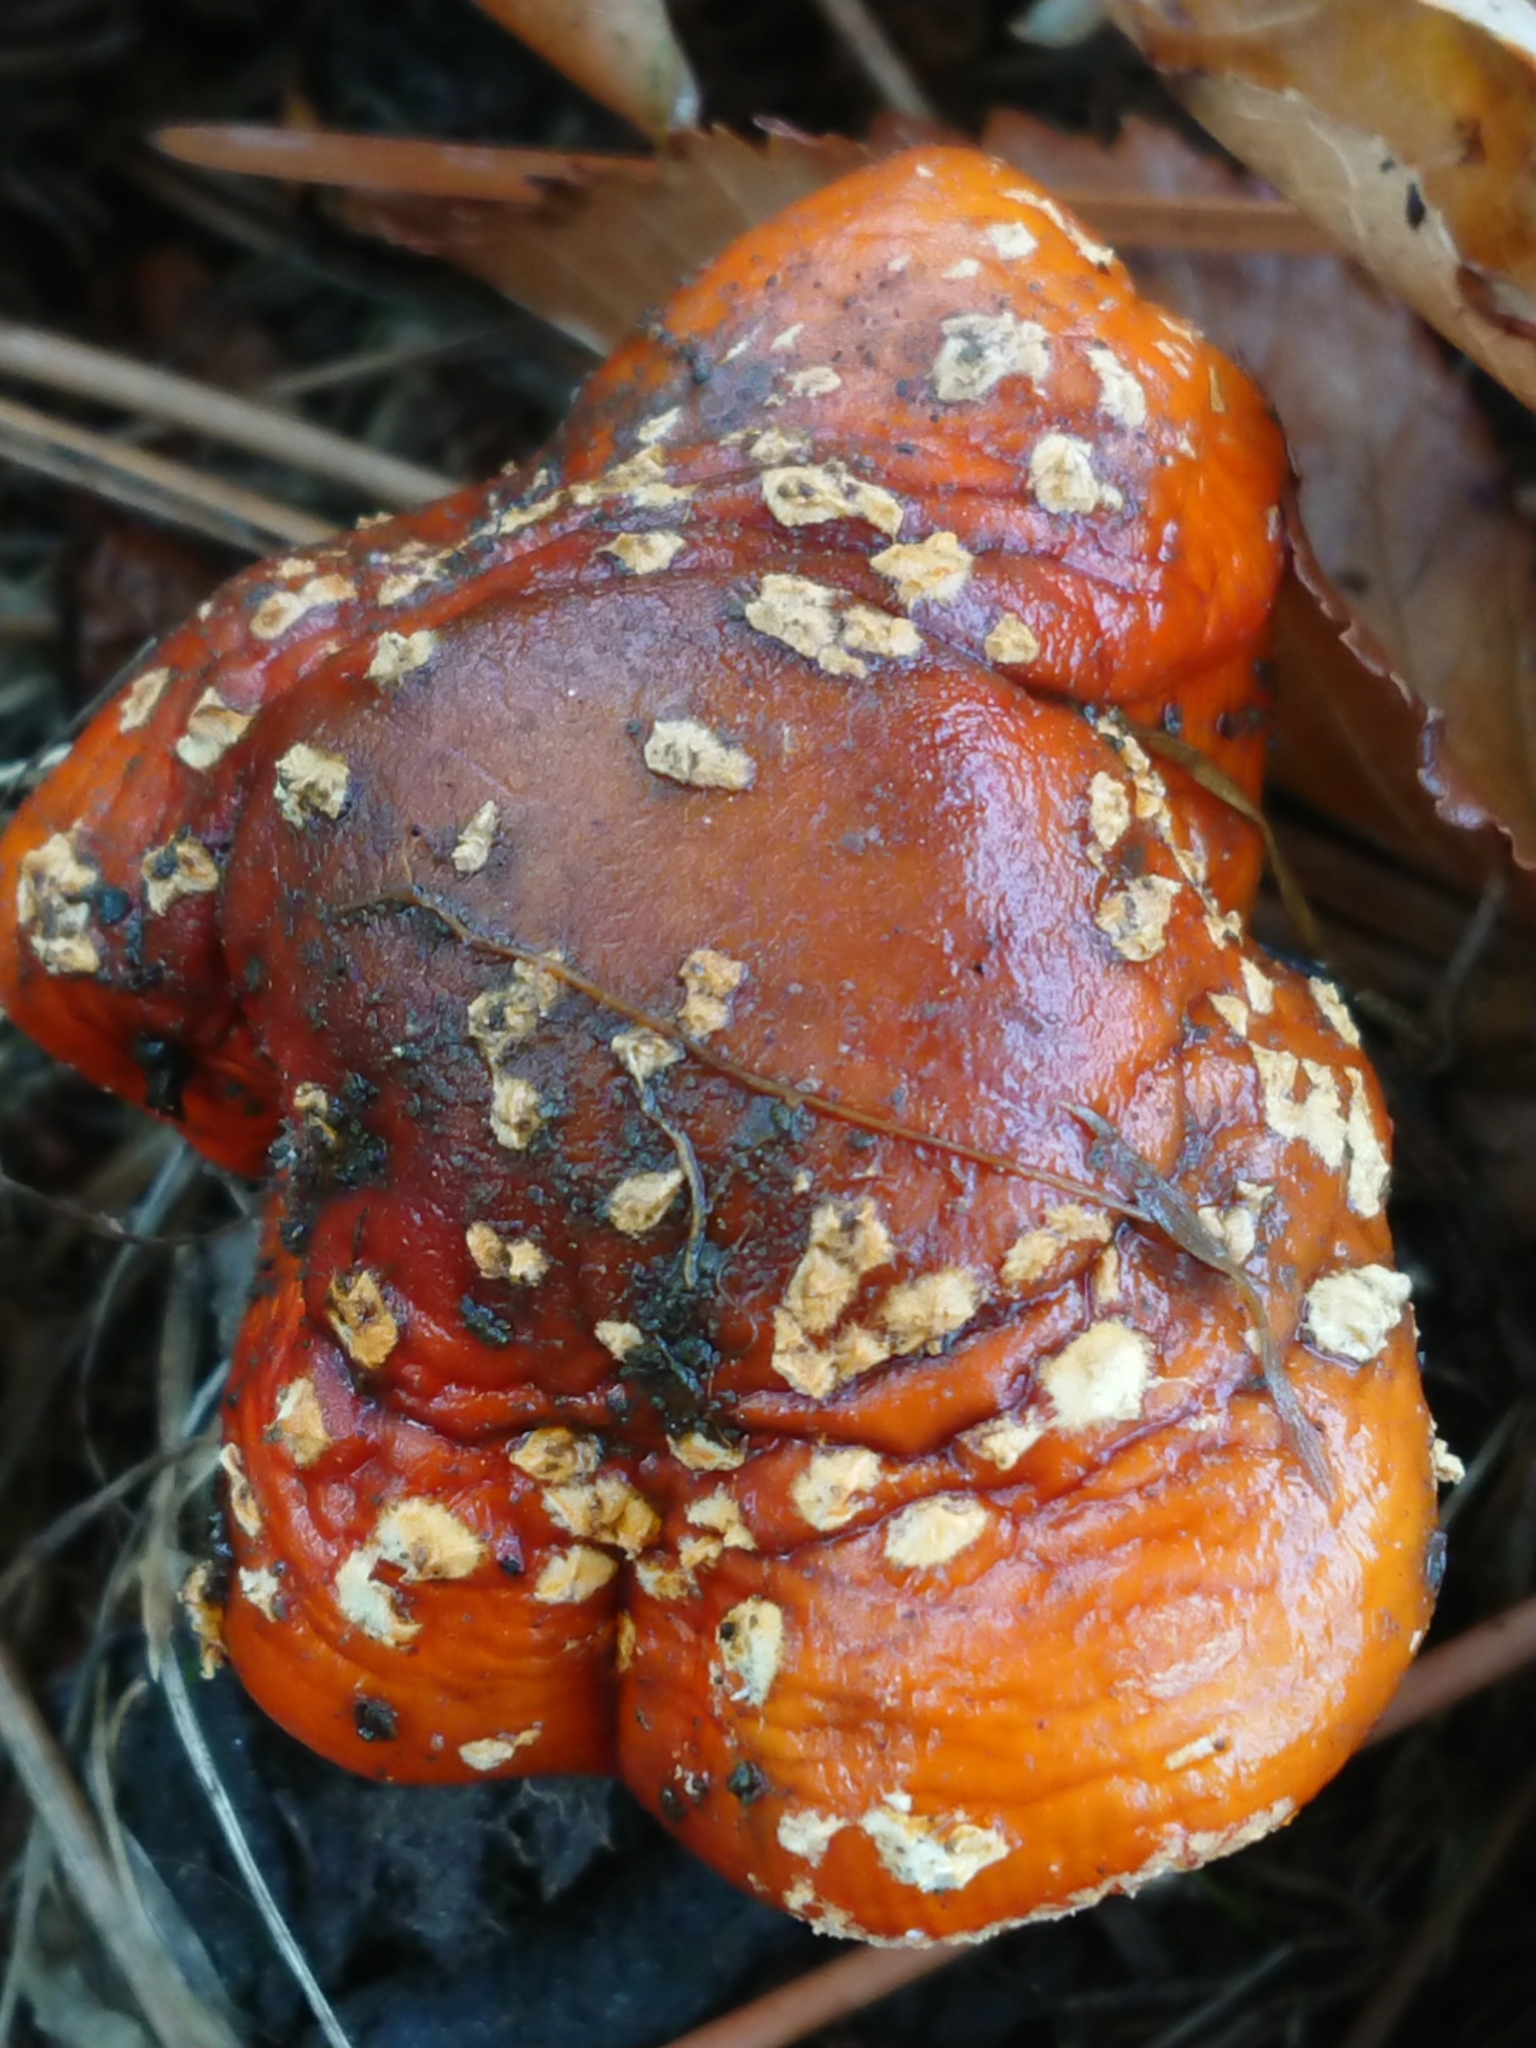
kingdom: Fungi
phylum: Basidiomycota
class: Agaricomycetes
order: Agaricales
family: Amanitaceae
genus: Amanita
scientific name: Amanita muscaria
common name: Fly agaric
